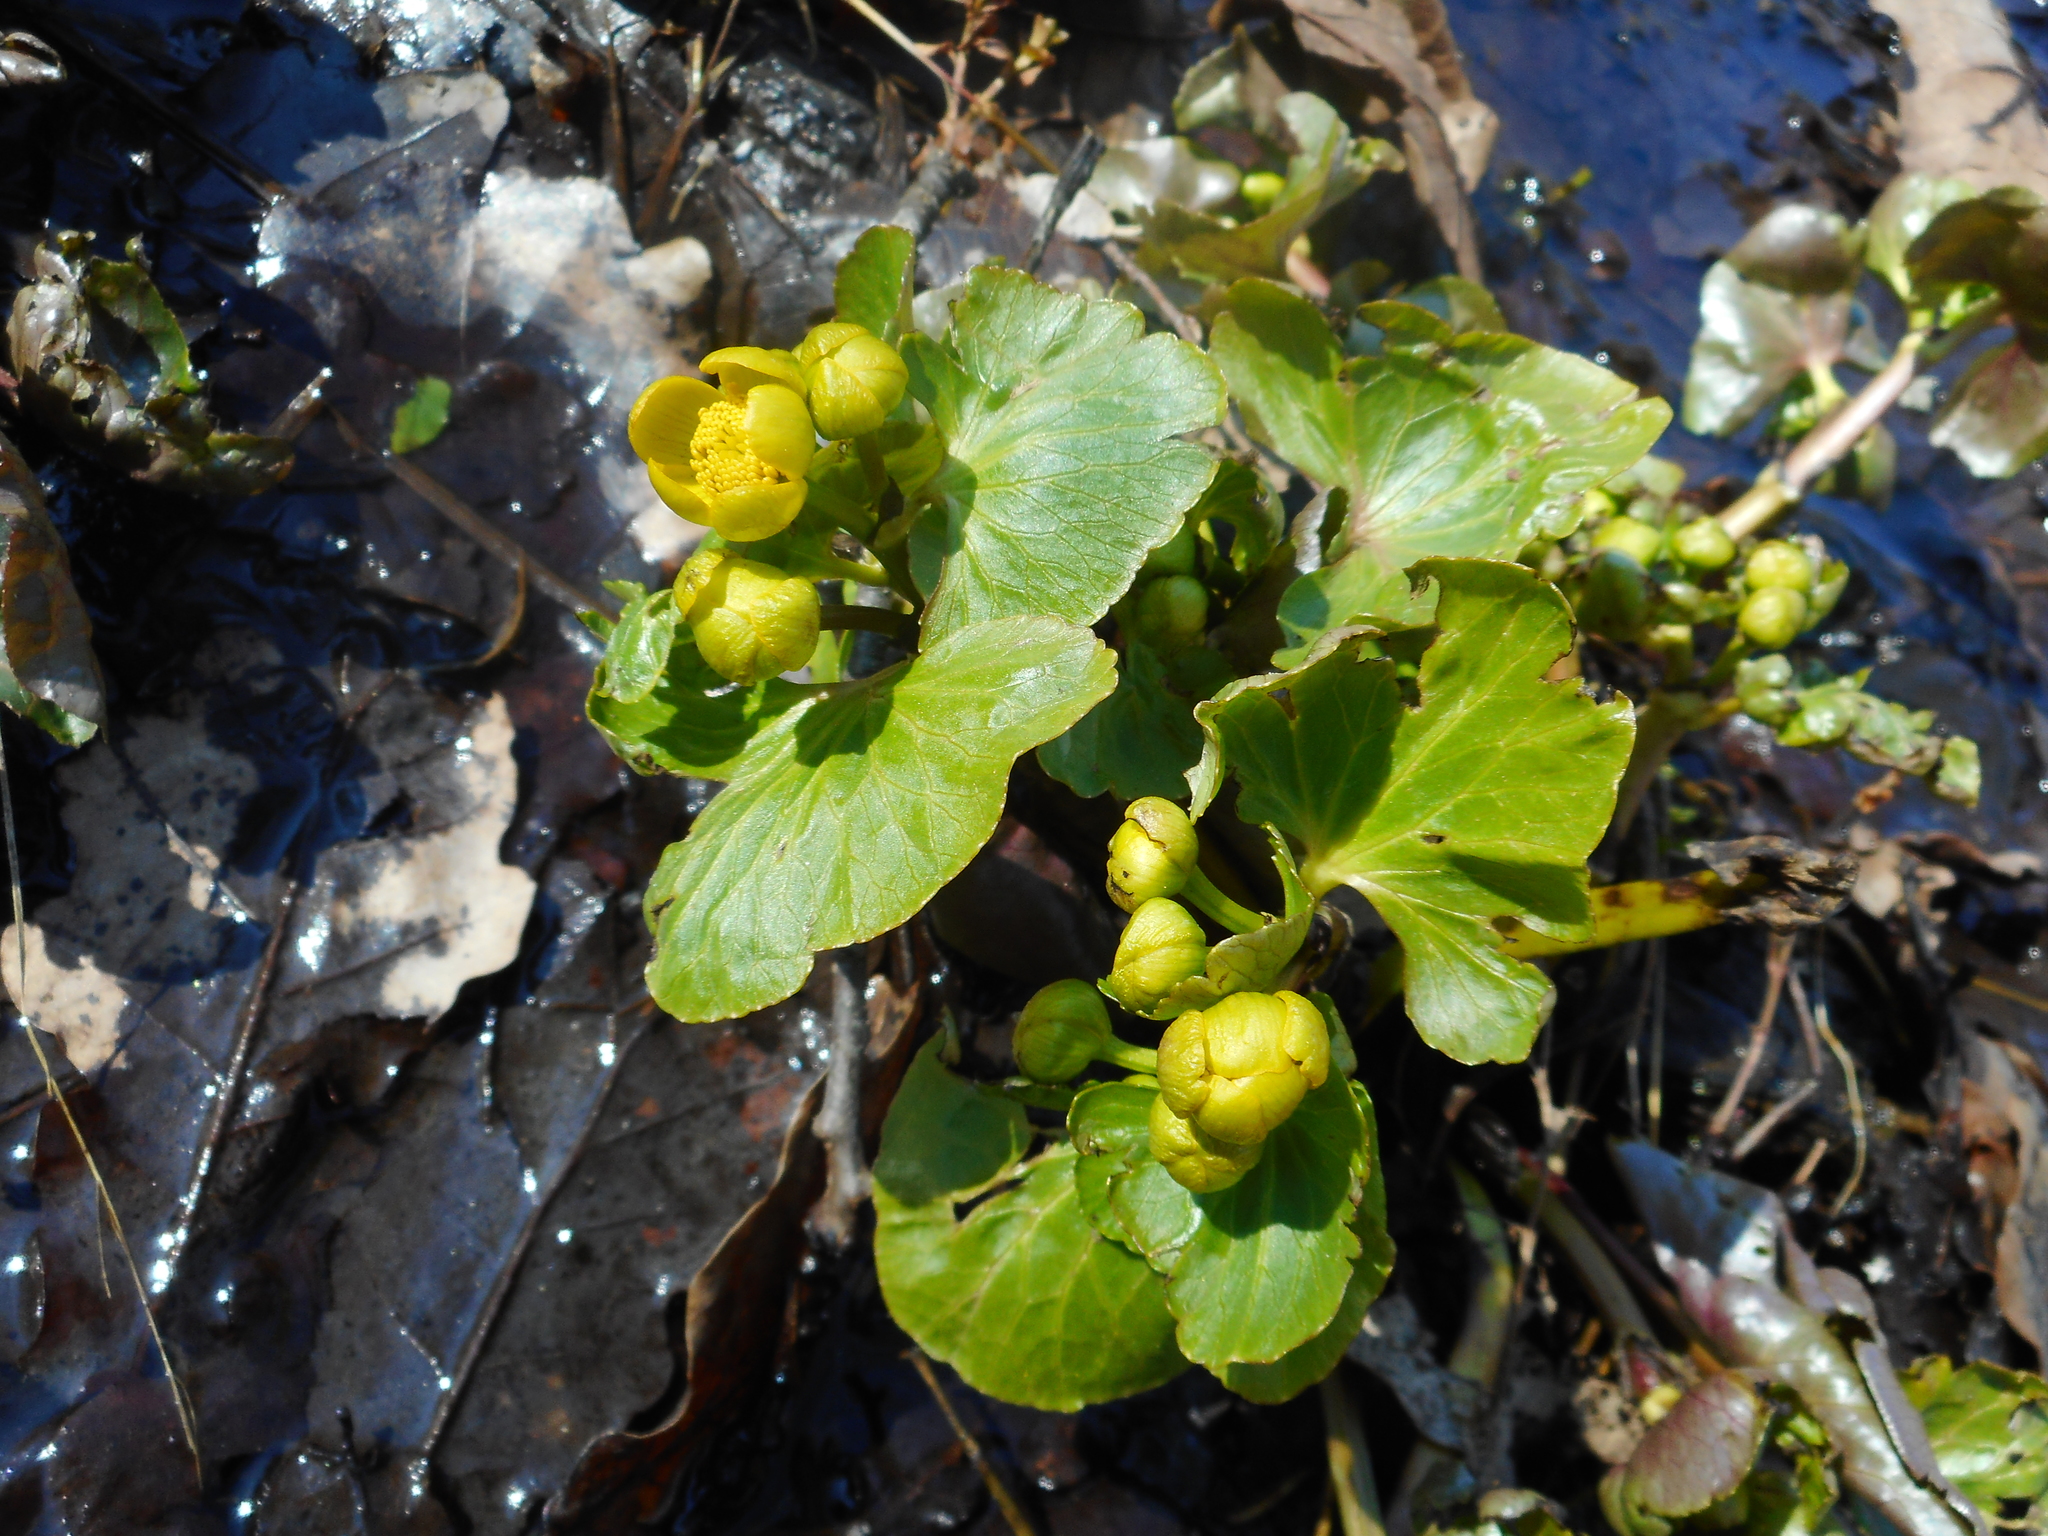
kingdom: Plantae
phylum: Tracheophyta
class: Magnoliopsida
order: Ranunculales
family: Ranunculaceae
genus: Caltha
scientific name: Caltha palustris
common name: Marsh marigold
